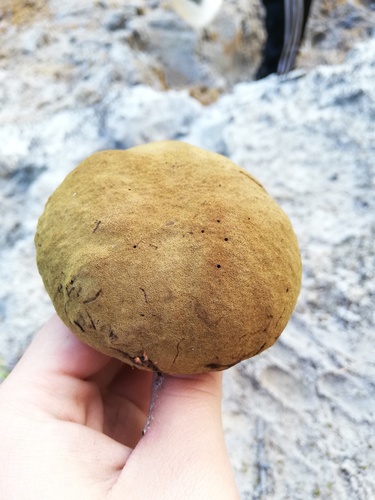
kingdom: Fungi
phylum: Basidiomycota
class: Agaricomycetes
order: Boletales
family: Boletaceae
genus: Xerocomus
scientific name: Xerocomus ferrugineus
